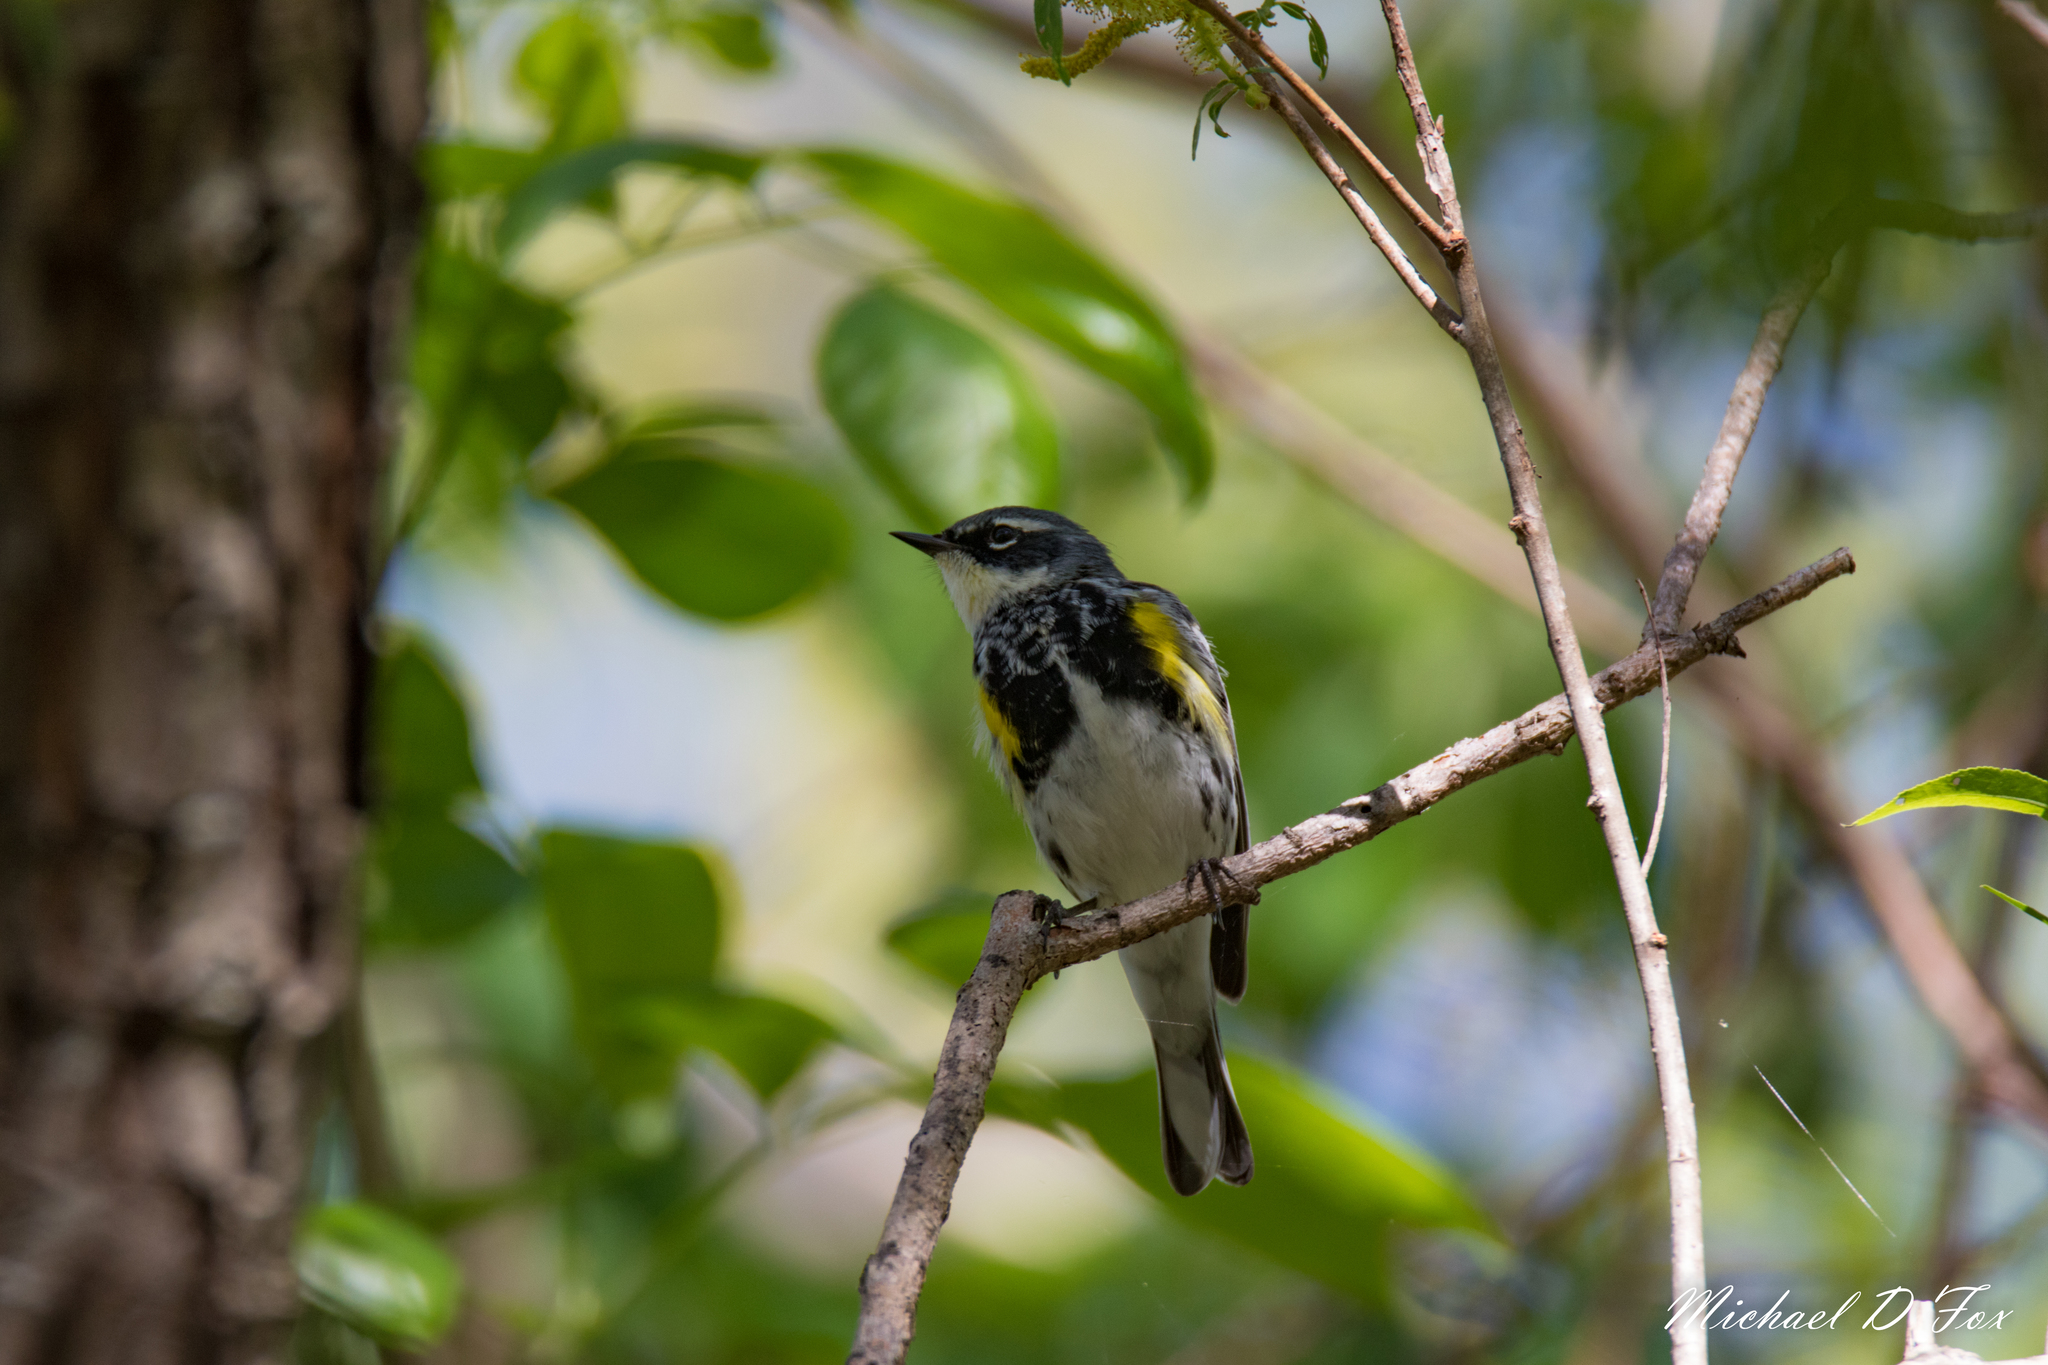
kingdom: Animalia
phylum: Chordata
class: Aves
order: Passeriformes
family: Parulidae
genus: Setophaga
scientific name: Setophaga coronata
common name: Myrtle warbler
